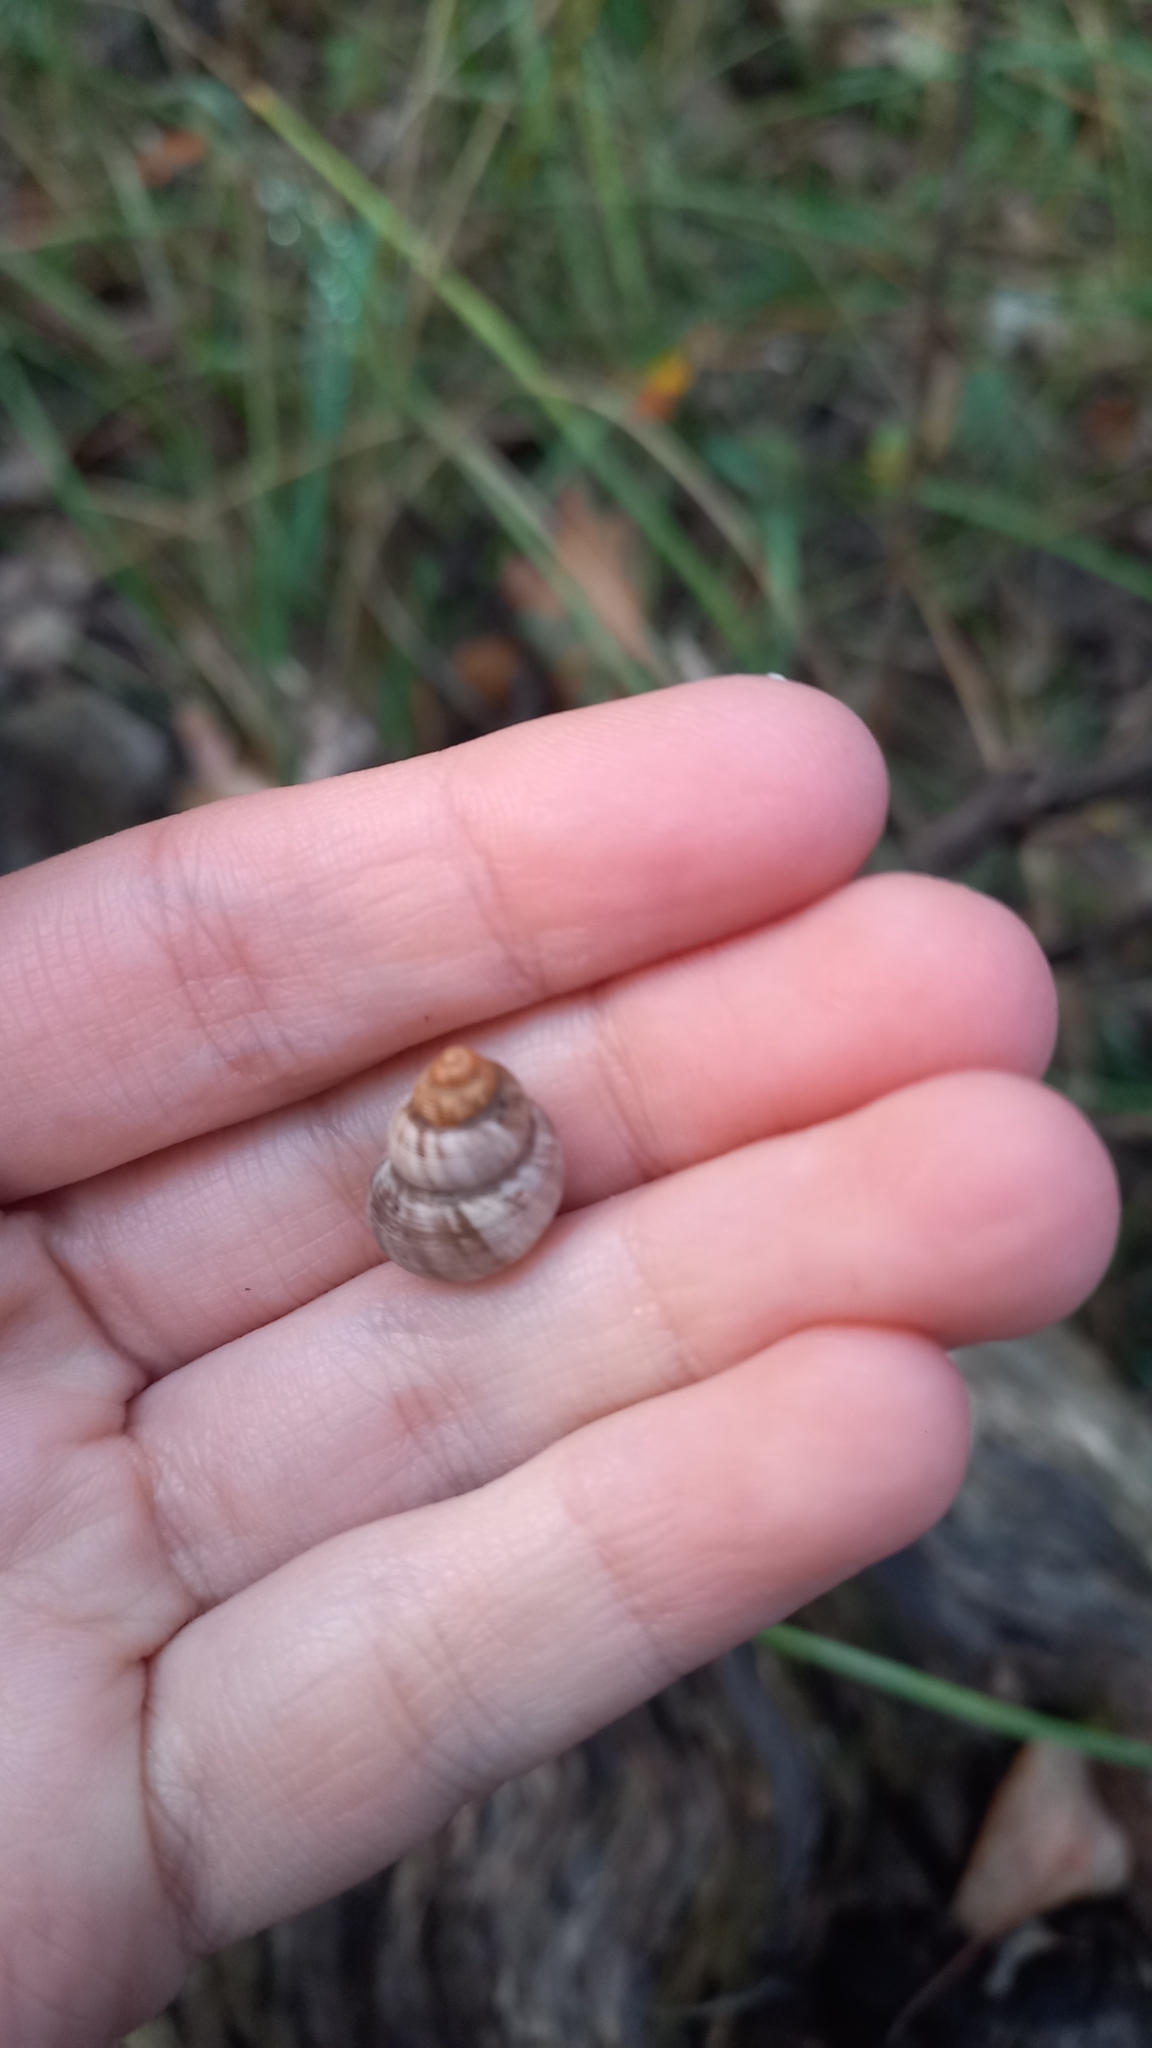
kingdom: Animalia
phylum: Mollusca
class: Gastropoda
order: Littorinimorpha
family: Pomatiidae
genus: Pomatias
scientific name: Pomatias elegans
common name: Red-mouthed snail
